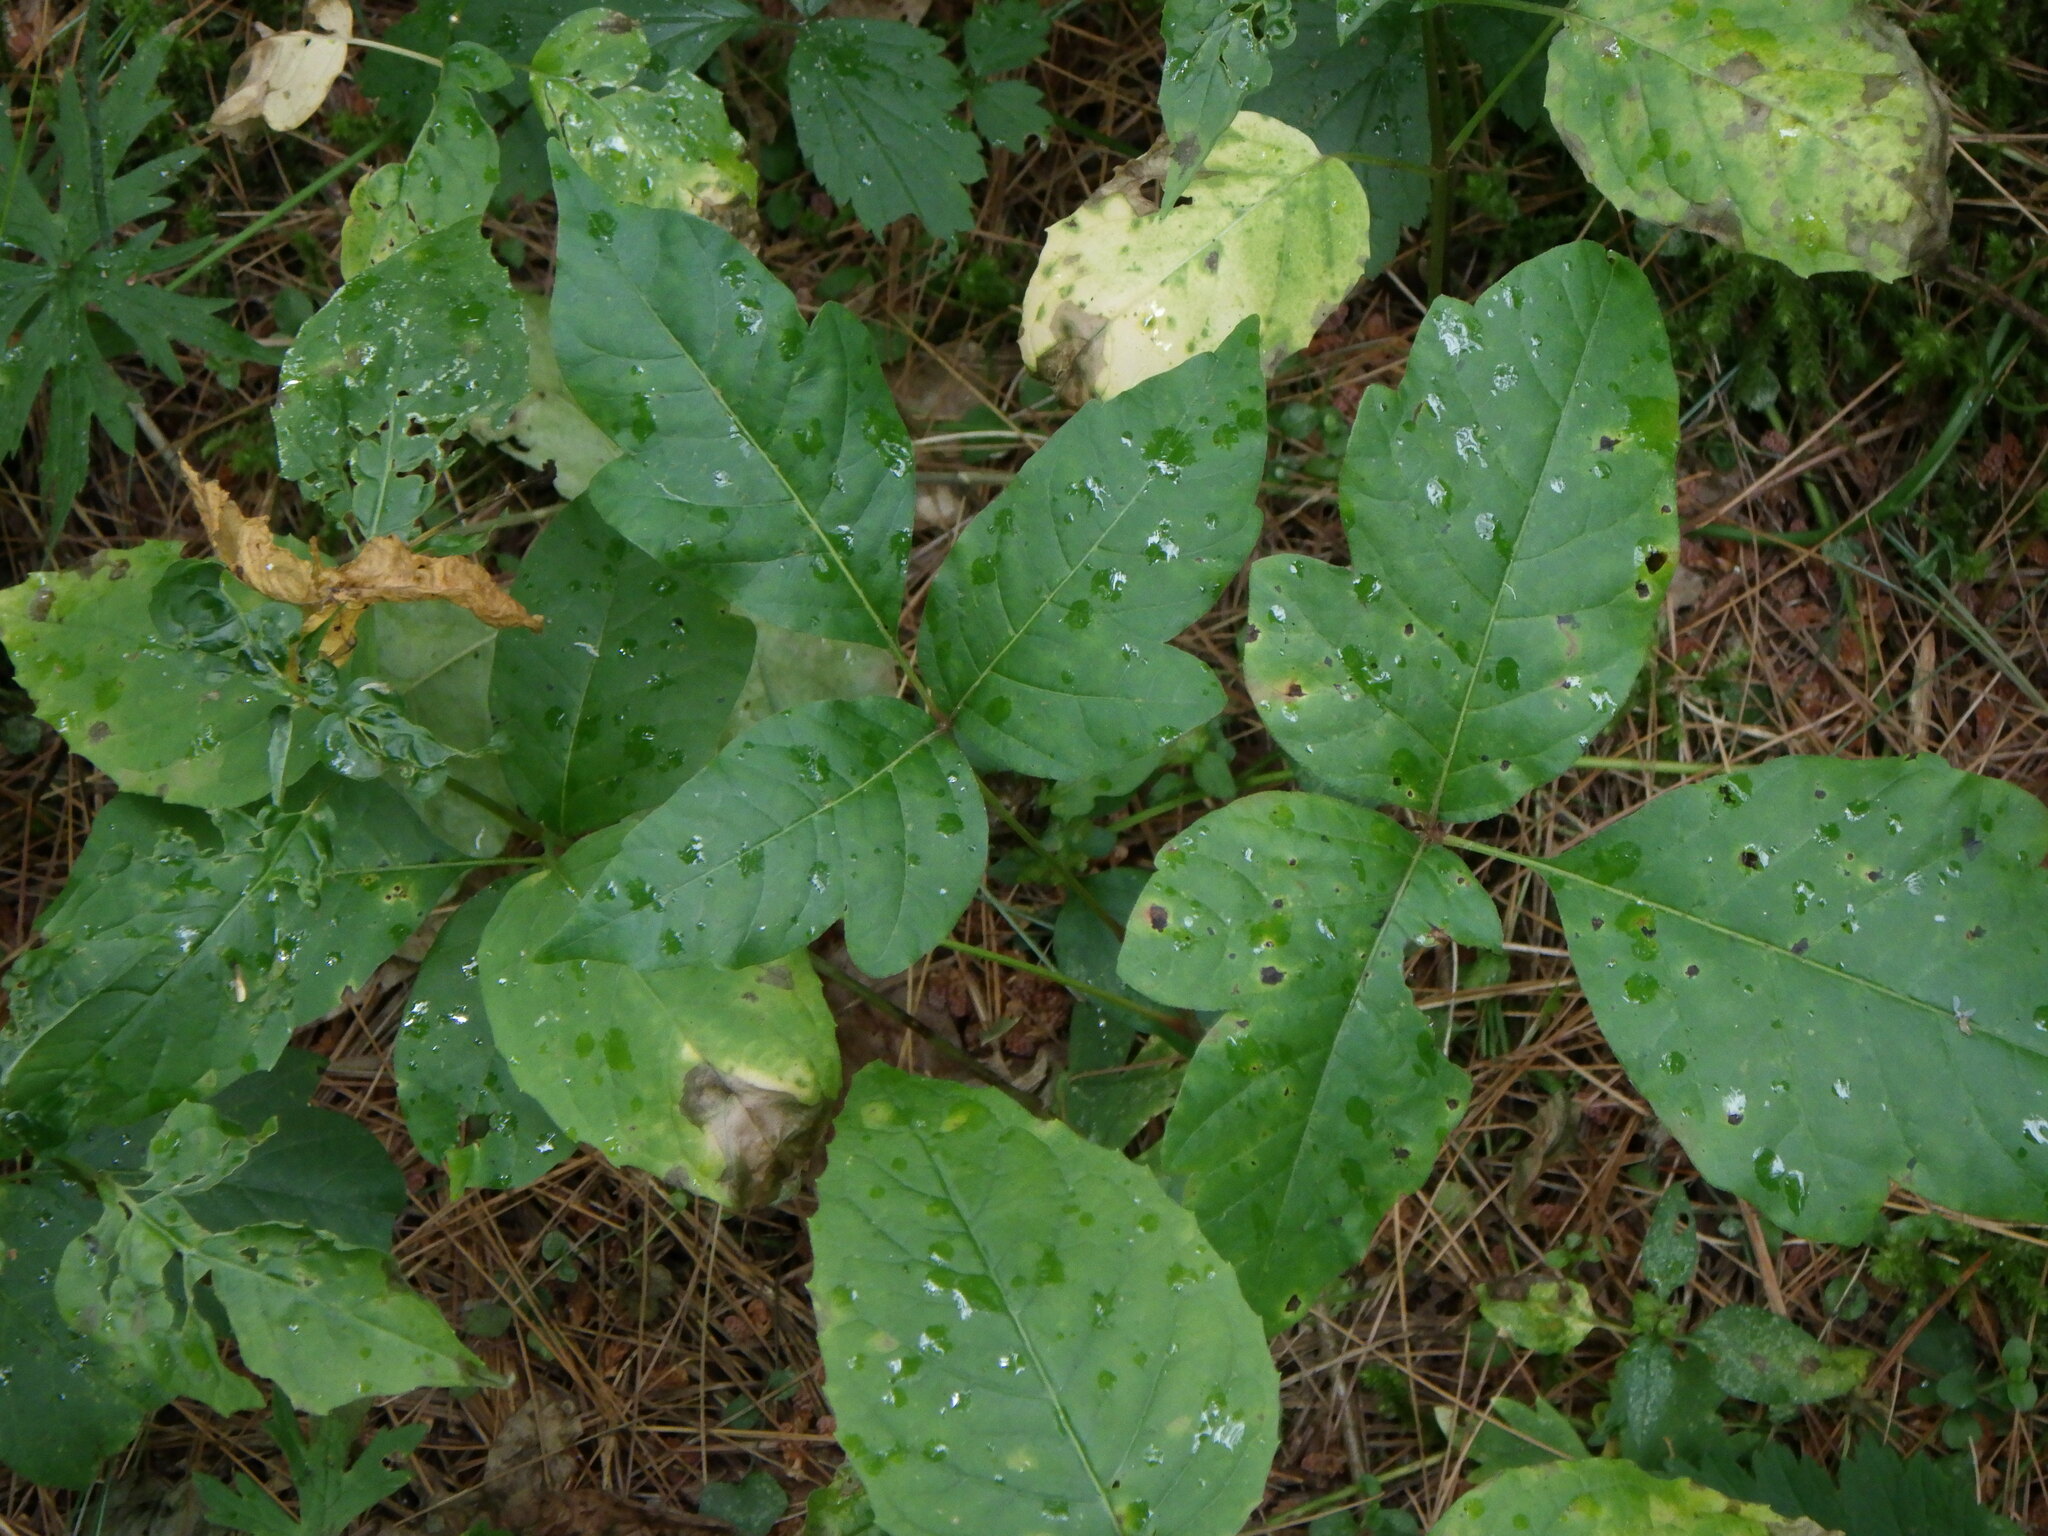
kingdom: Plantae
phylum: Tracheophyta
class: Magnoliopsida
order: Sapindales
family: Anacardiaceae
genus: Toxicodendron
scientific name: Toxicodendron radicans
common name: Poison ivy
